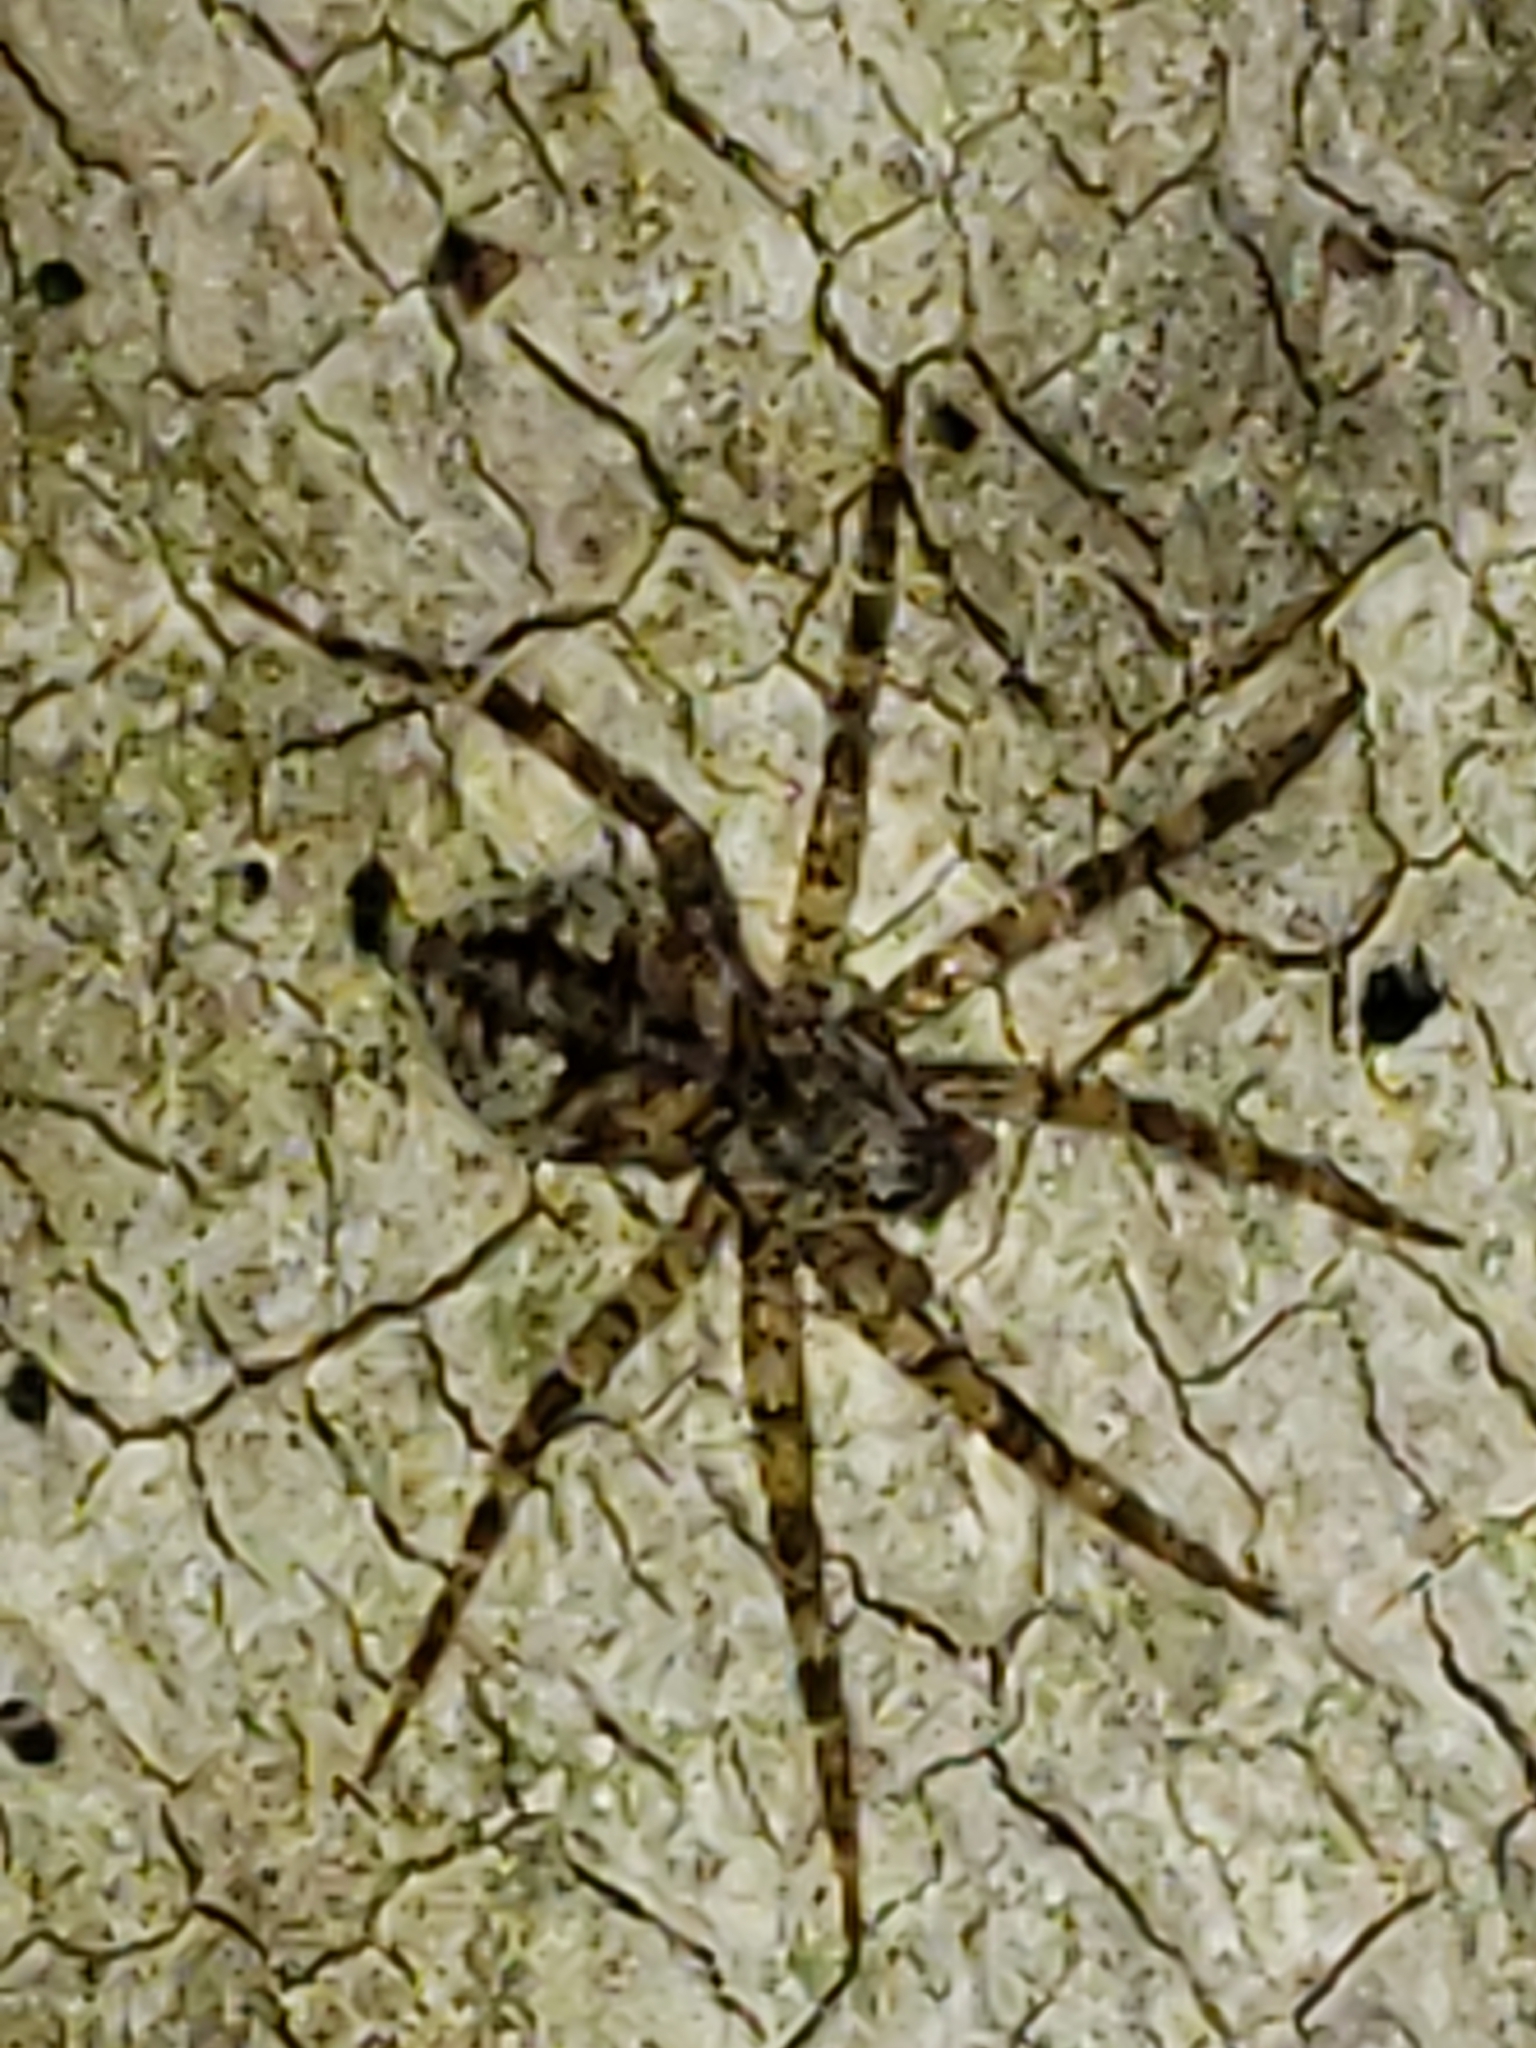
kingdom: Animalia
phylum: Arthropoda
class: Arachnida
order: Araneae
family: Pisauridae
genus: Dolomedes
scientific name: Dolomedes albineus
